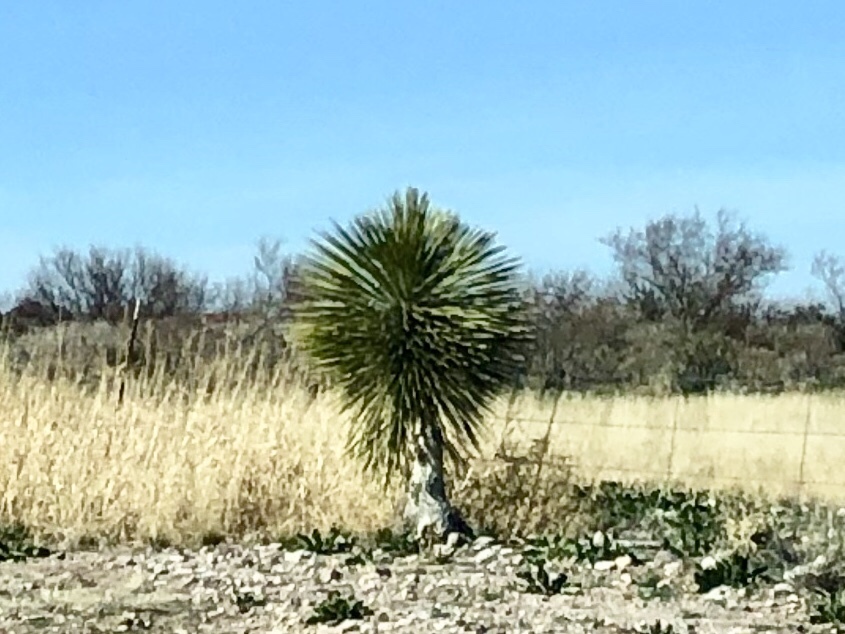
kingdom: Plantae
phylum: Tracheophyta
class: Liliopsida
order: Asparagales
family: Asparagaceae
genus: Yucca
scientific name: Yucca elata
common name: Palmella
